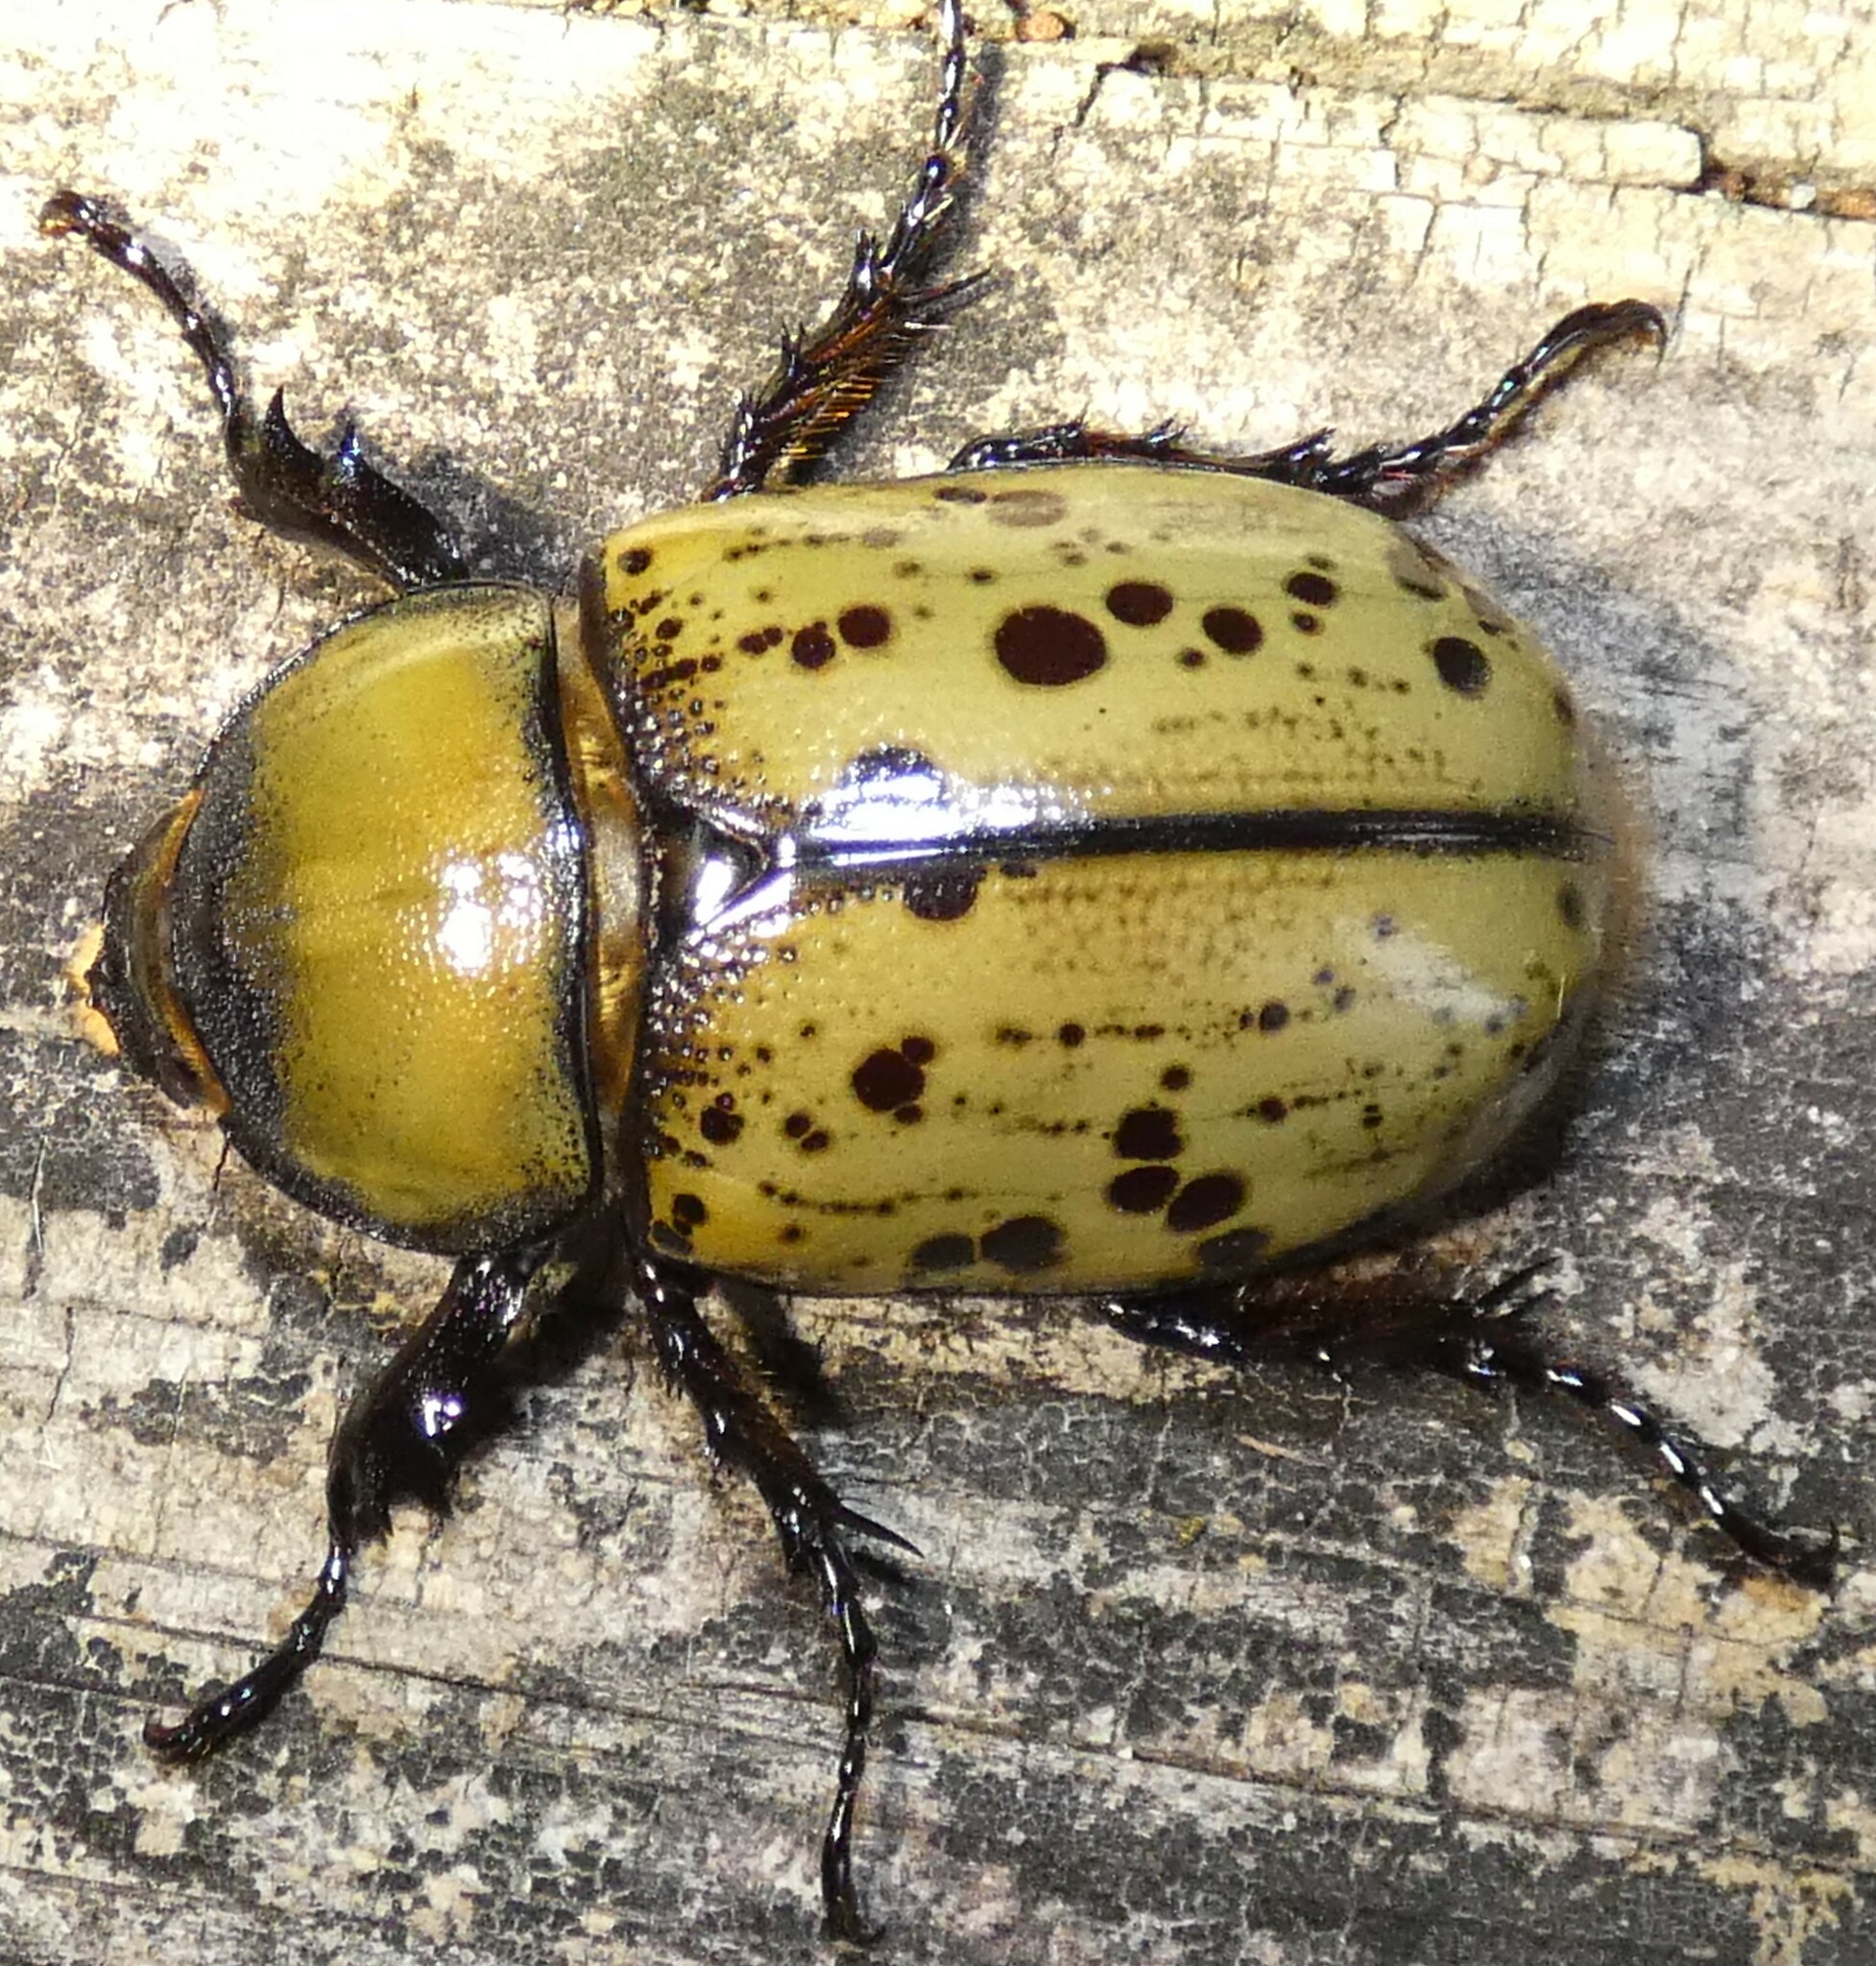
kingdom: Animalia
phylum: Arthropoda
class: Insecta
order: Coleoptera
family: Scarabaeidae
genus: Dynastes
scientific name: Dynastes tityus
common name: Eastern hercules beetle
